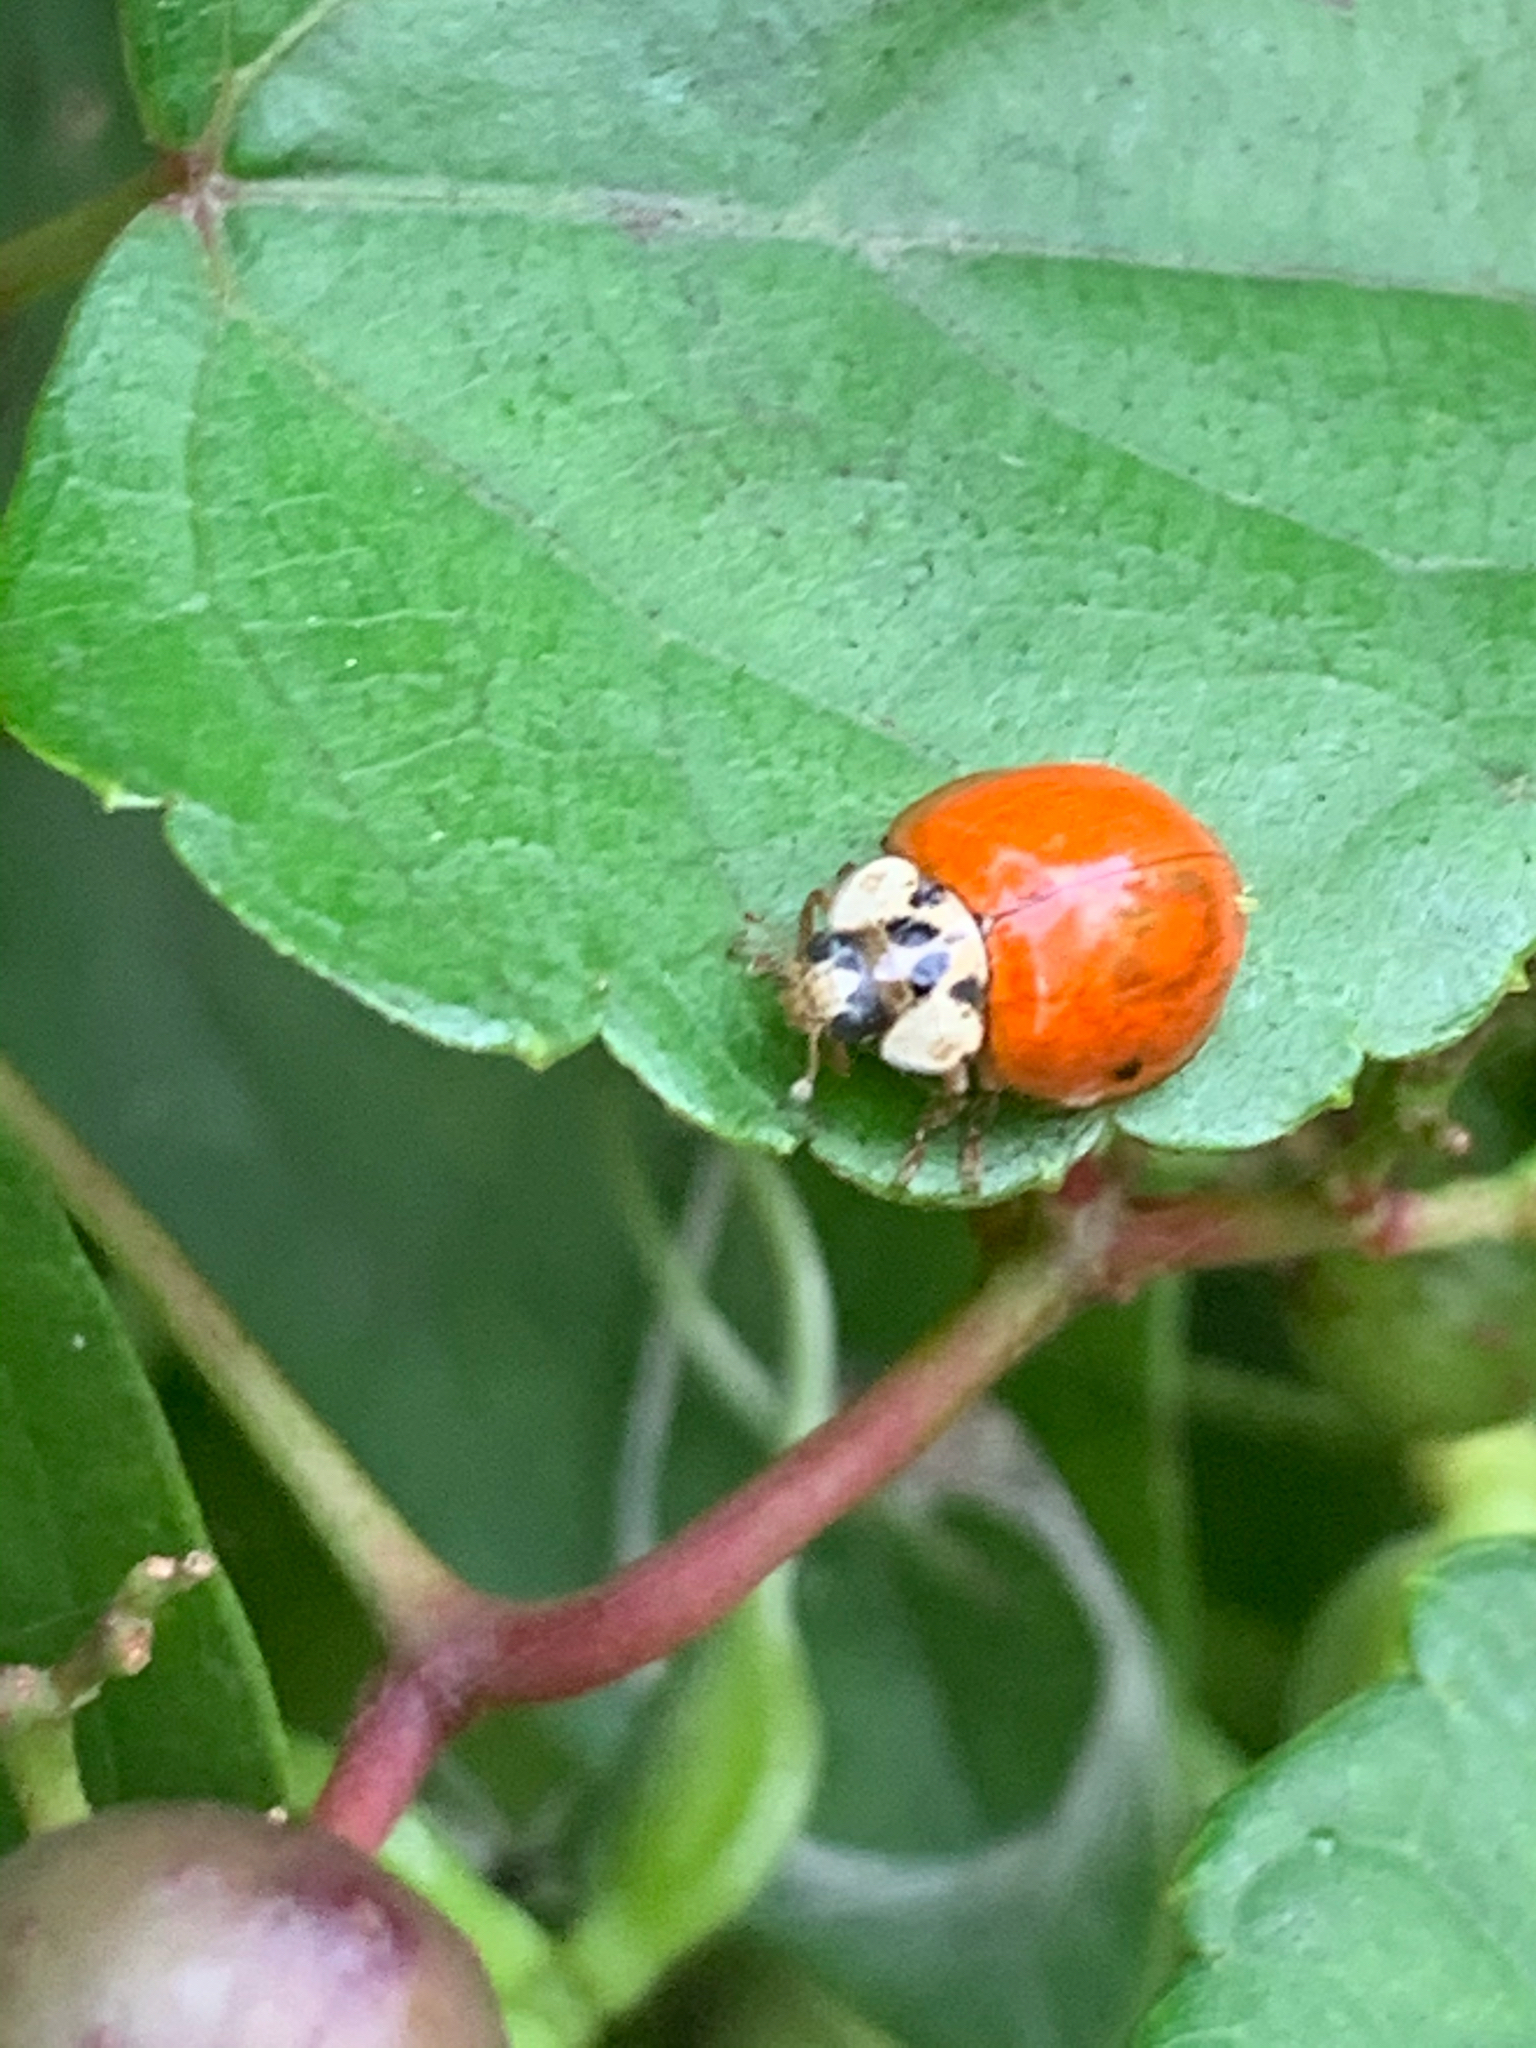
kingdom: Animalia
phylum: Arthropoda
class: Insecta
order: Coleoptera
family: Coccinellidae
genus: Harmonia
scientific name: Harmonia axyridis
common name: Harlequin ladybird
